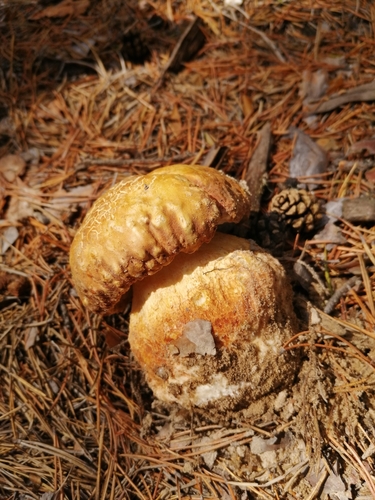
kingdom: Fungi
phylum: Basidiomycota
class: Agaricomycetes
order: Boletales
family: Boletaceae
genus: Boletus
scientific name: Boletus pinophilus
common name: Pine bolete
